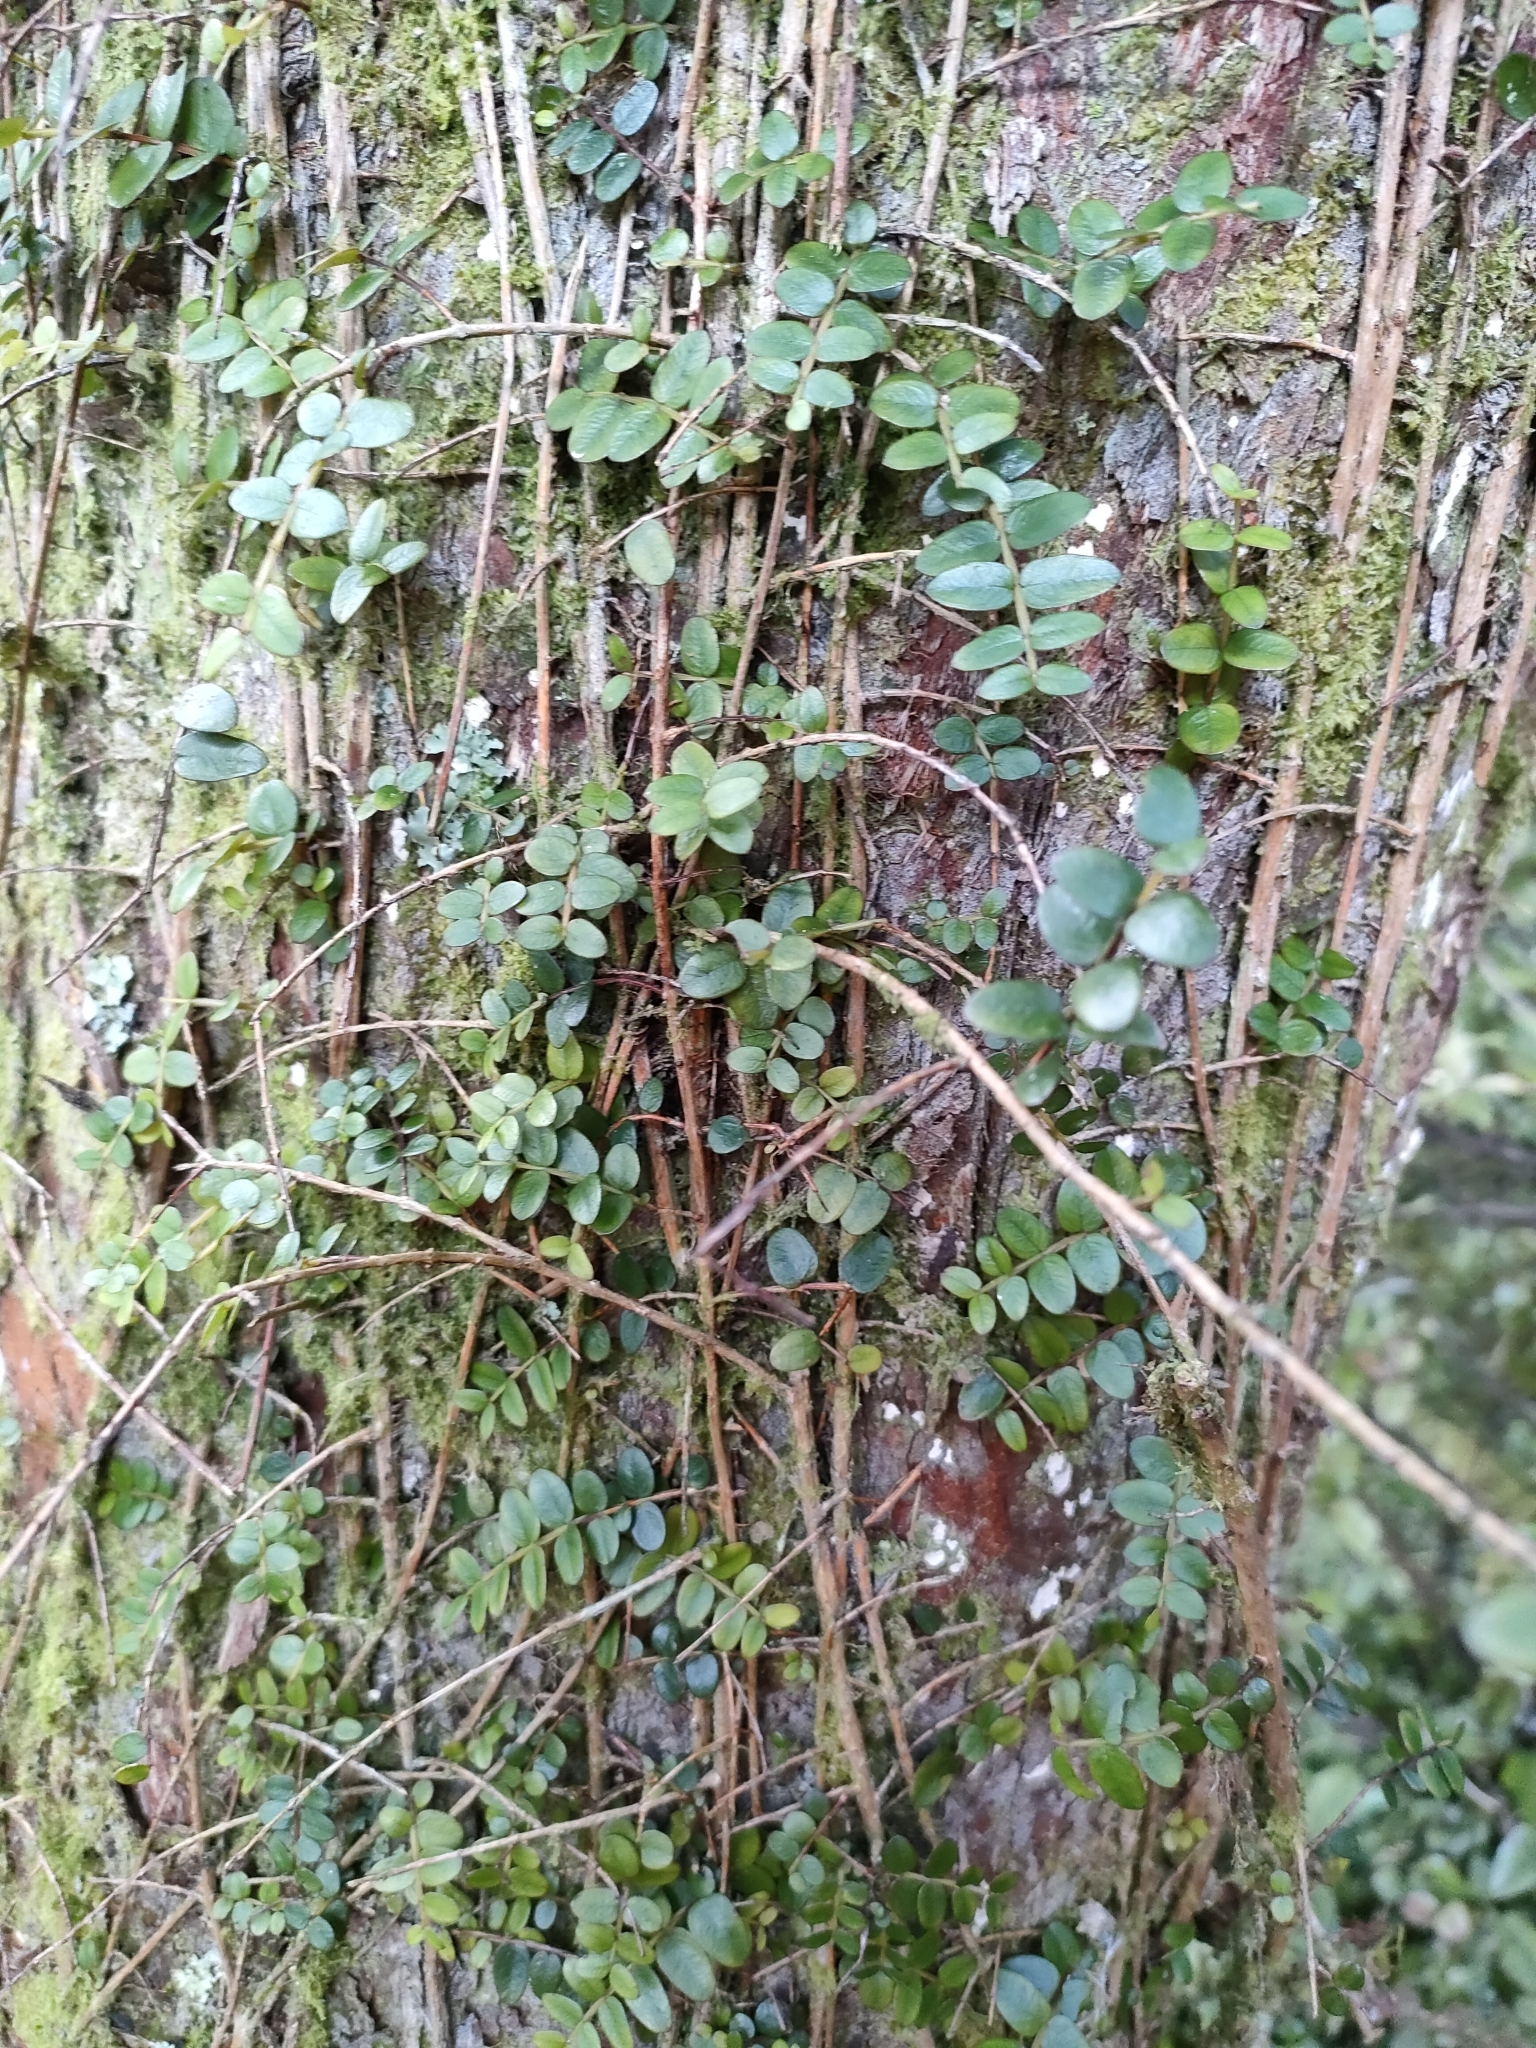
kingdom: Plantae
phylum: Tracheophyta
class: Magnoliopsida
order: Myrtales
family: Myrtaceae
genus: Metrosideros
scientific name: Metrosideros diffusa
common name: Small ratavine
